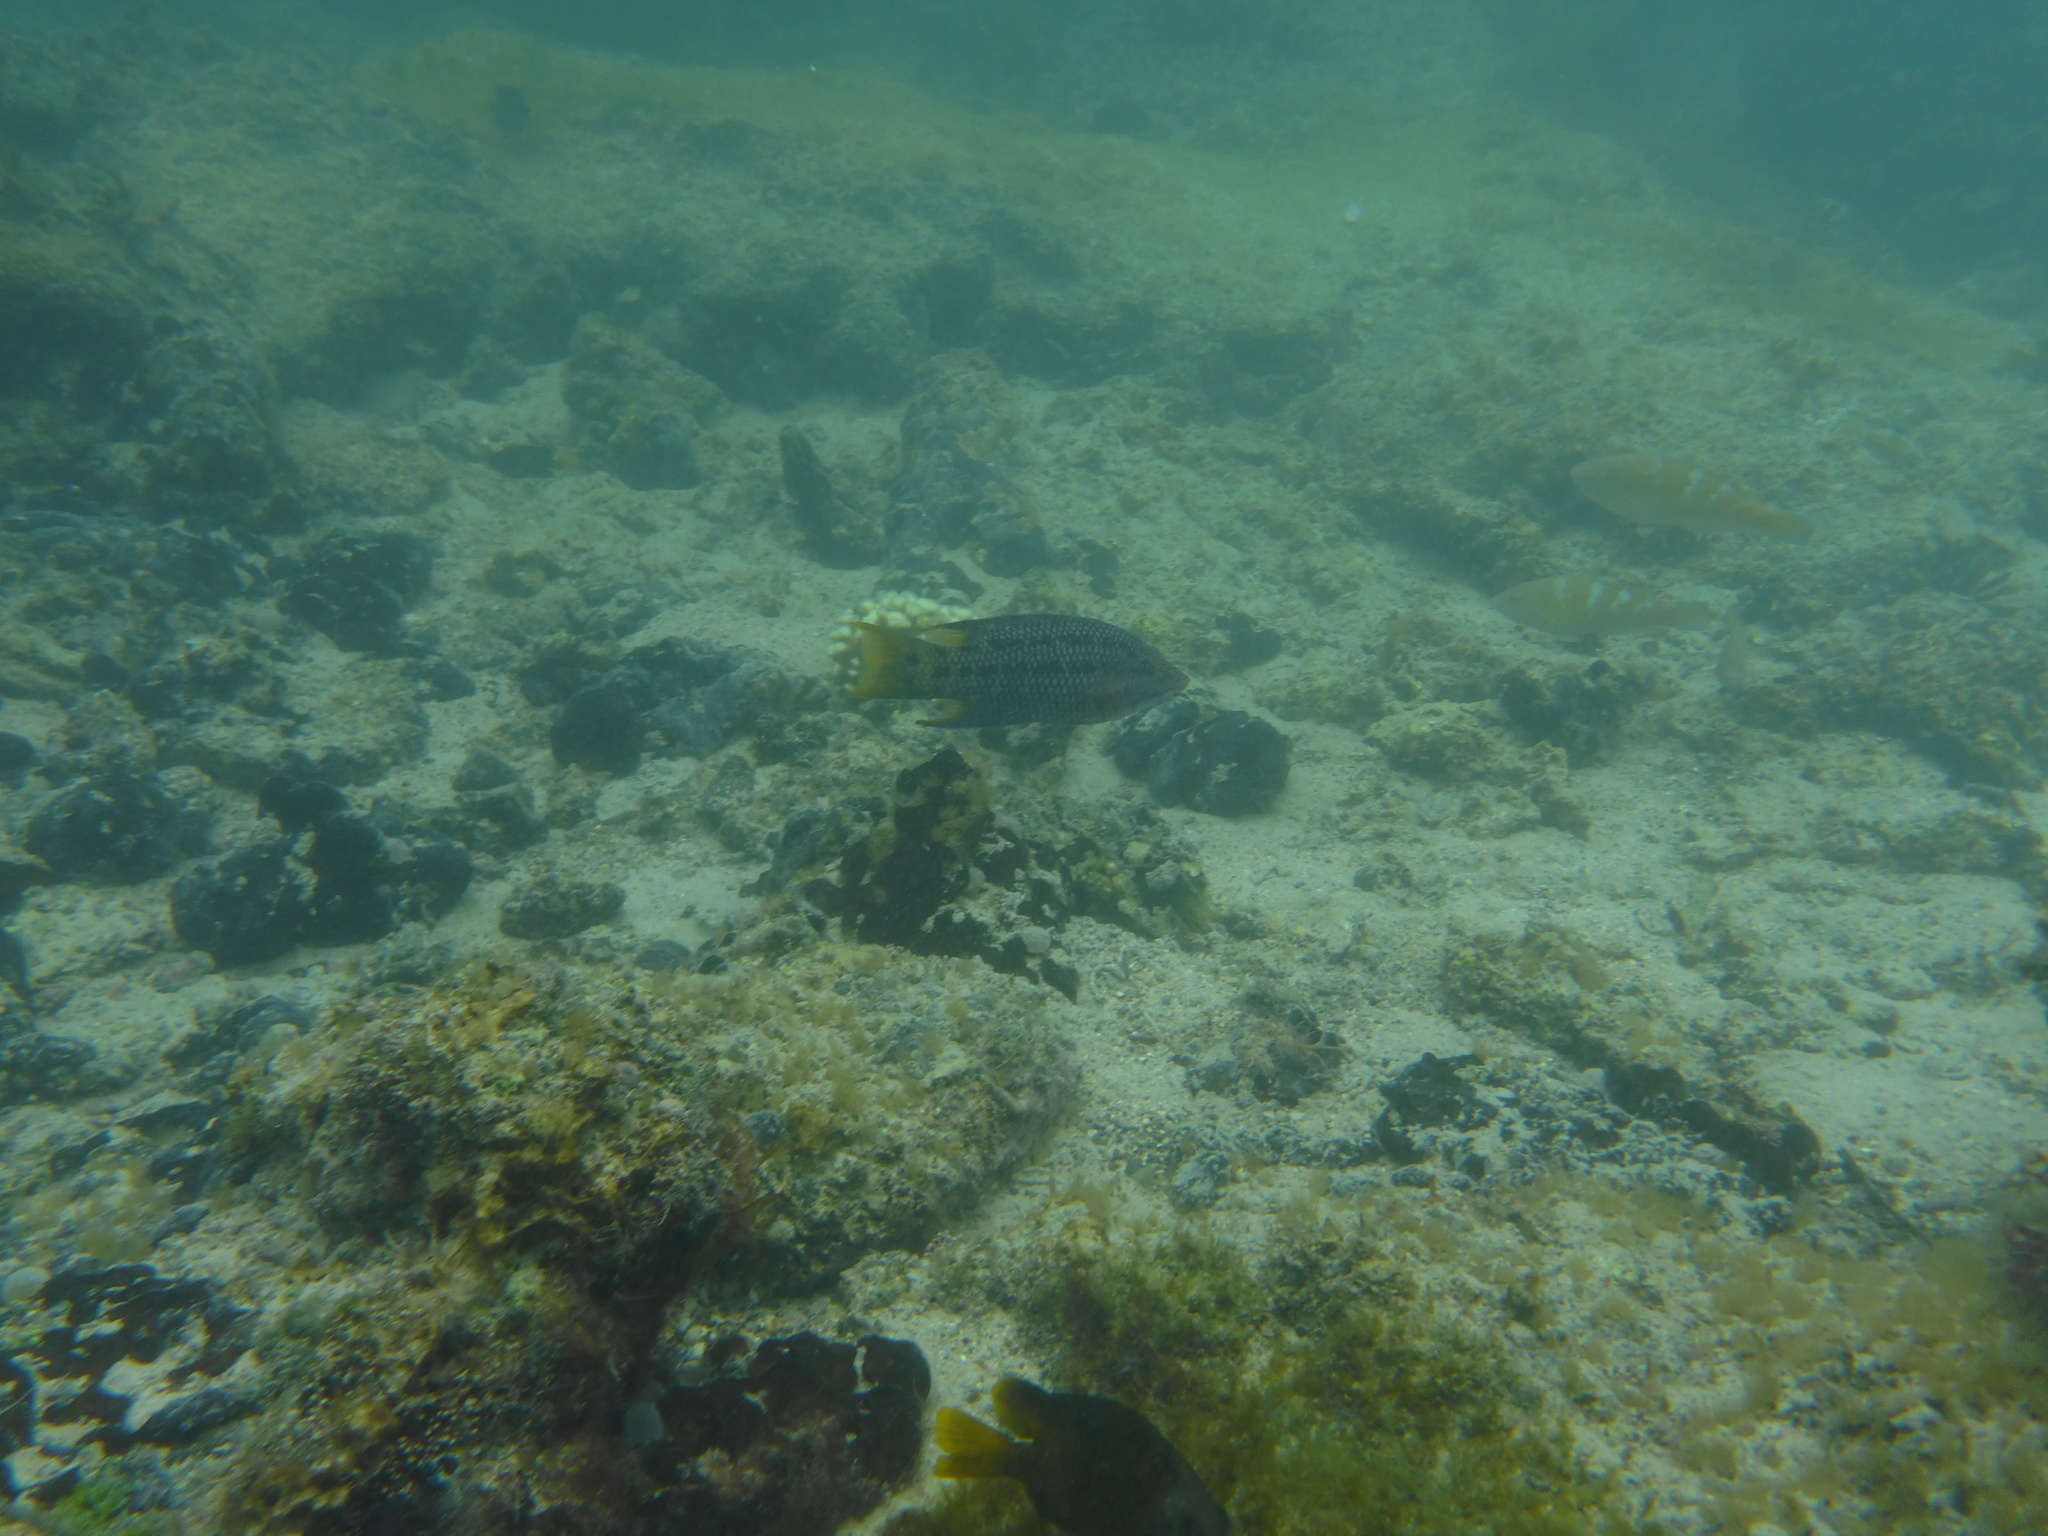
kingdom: Animalia
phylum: Chordata
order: Perciformes
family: Labridae
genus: Bodianus
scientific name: Bodianus diplotaenia
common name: Mexican hogfish
